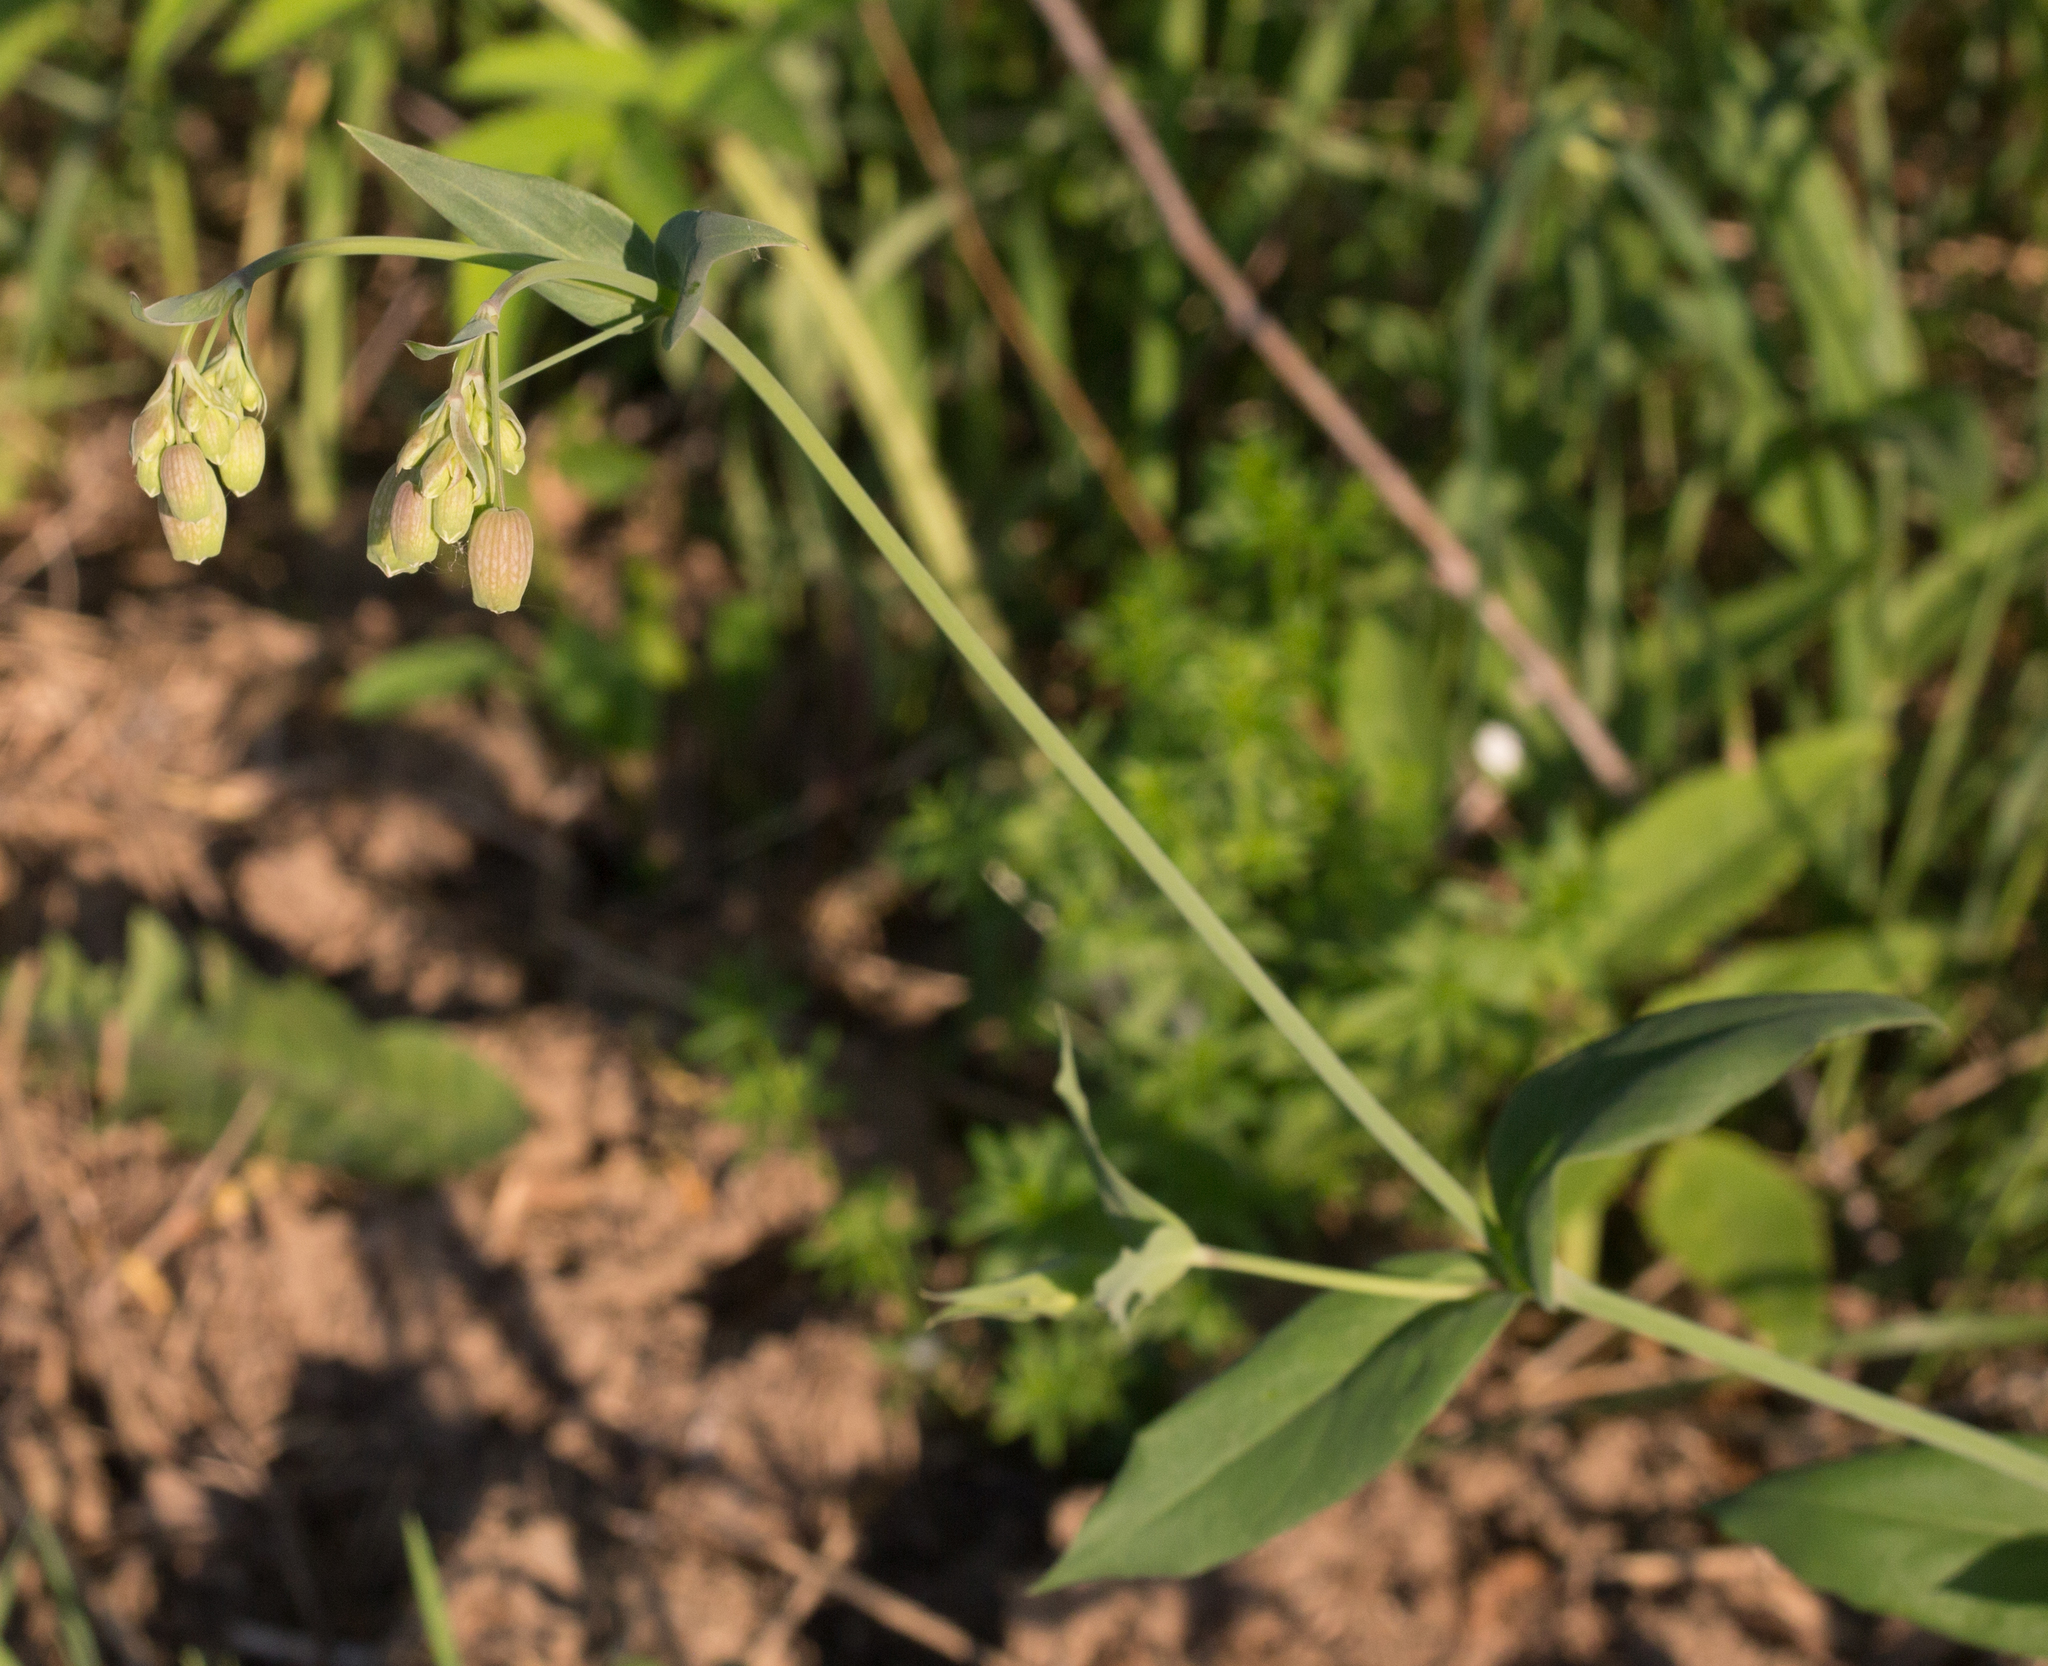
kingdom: Plantae
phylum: Tracheophyta
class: Magnoliopsida
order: Caryophyllales
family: Caryophyllaceae
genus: Silene
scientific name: Silene vulgaris
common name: Bladder campion
